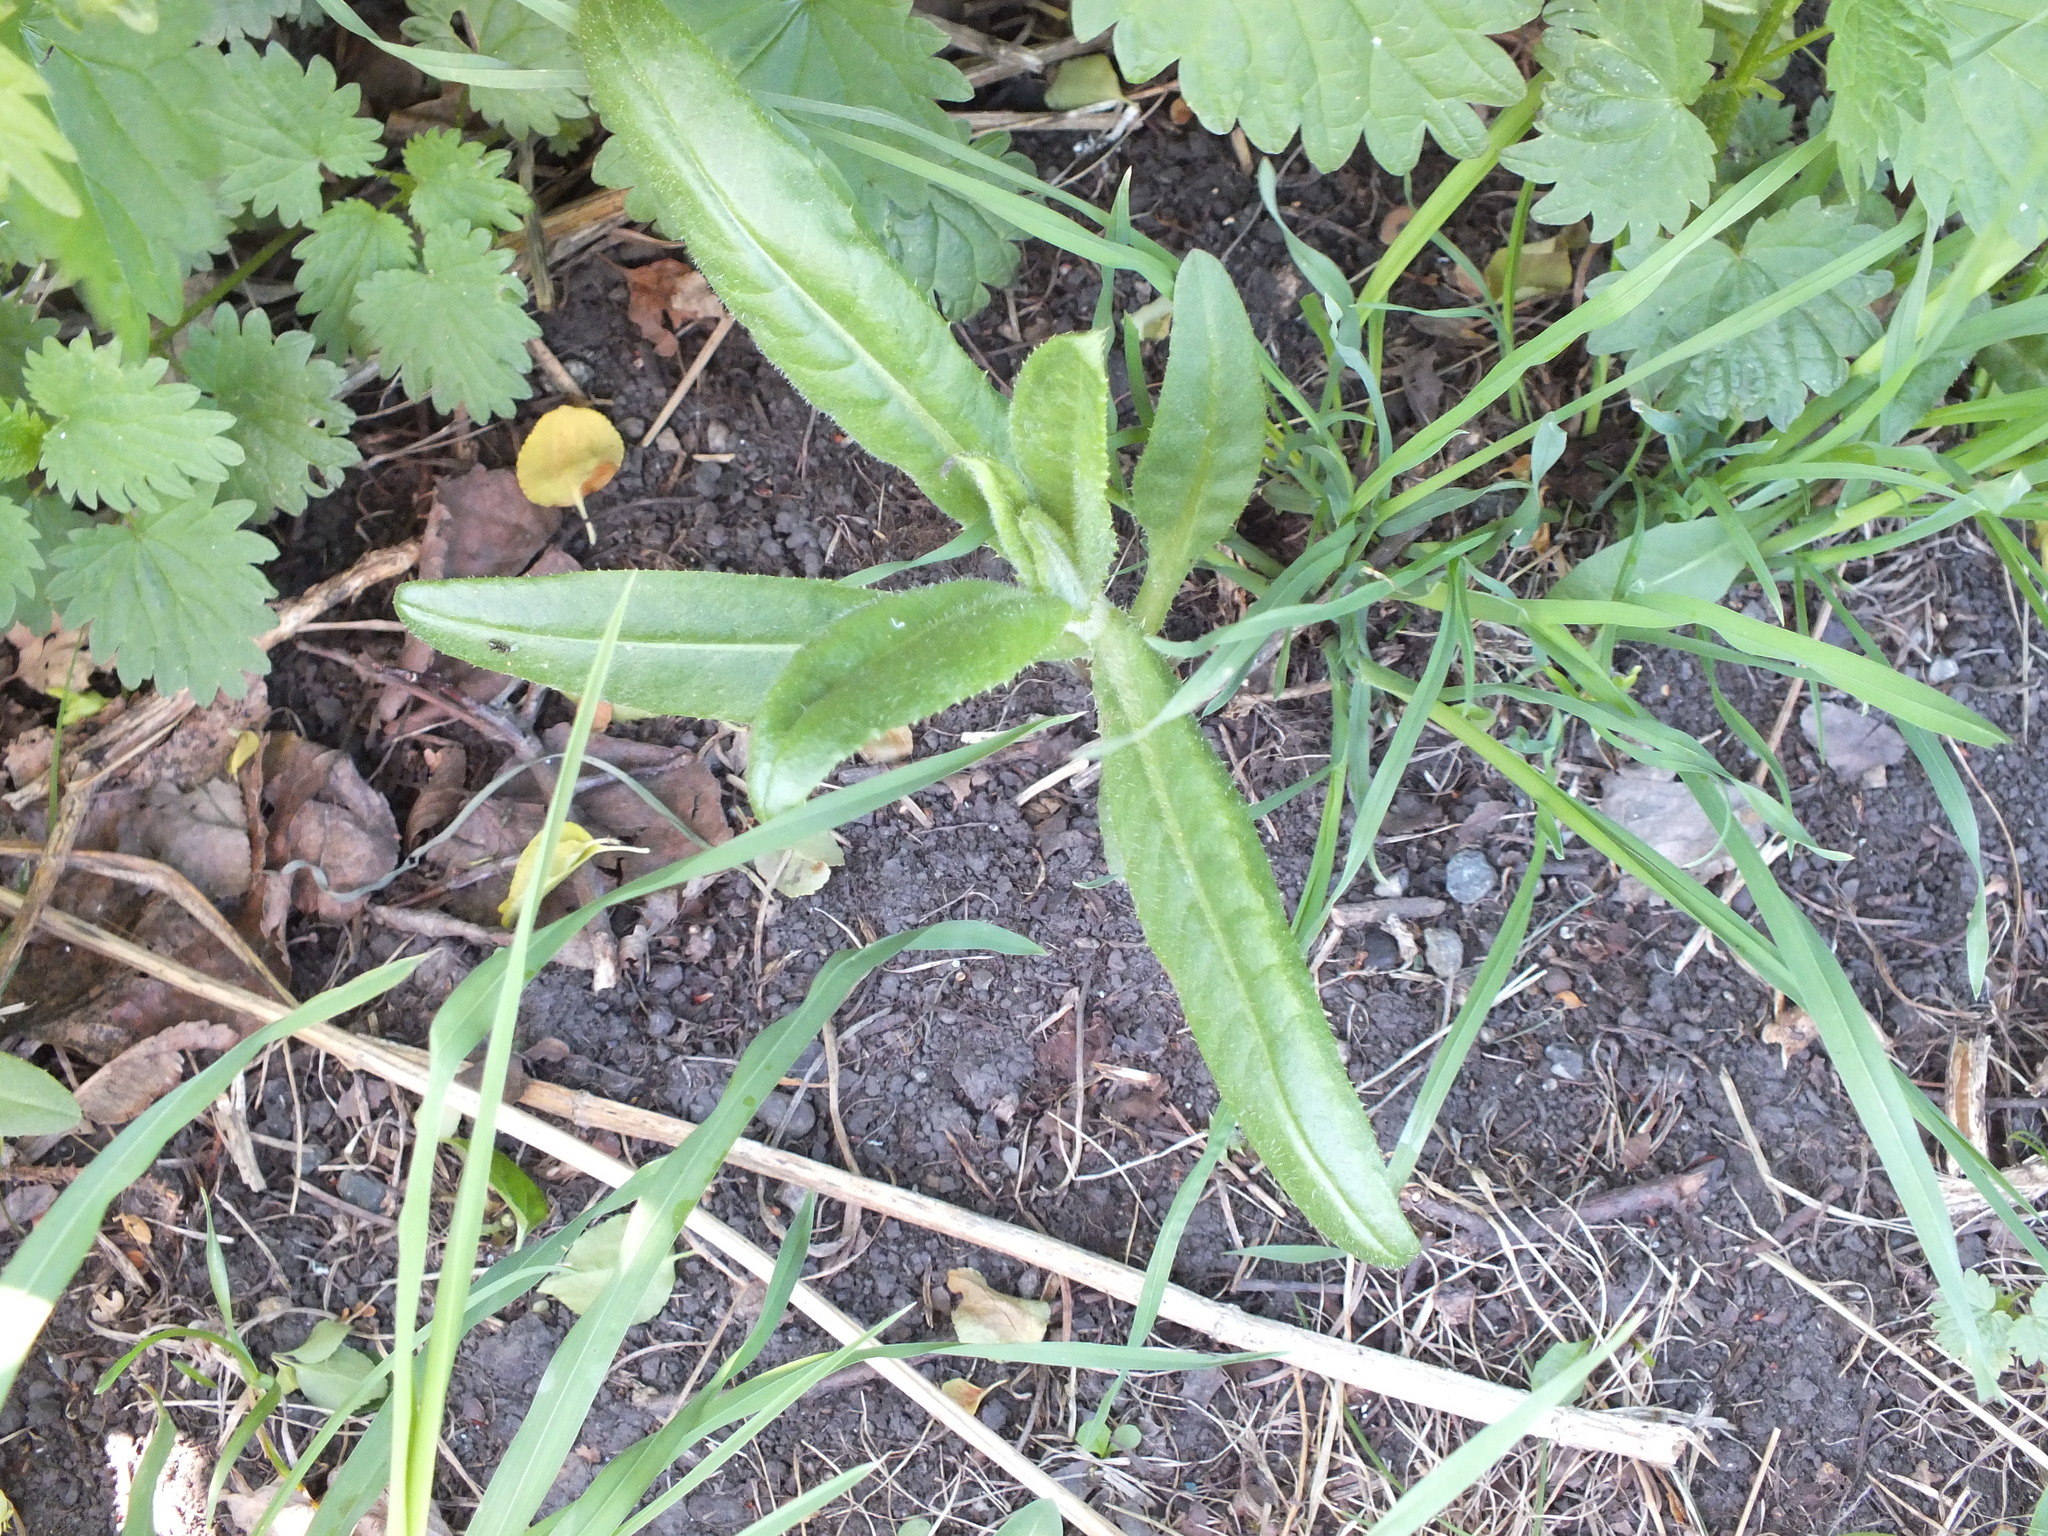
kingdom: Plantae
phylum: Tracheophyta
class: Magnoliopsida
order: Asterales
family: Asteraceae
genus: Cirsium
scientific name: Cirsium arvense
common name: Creeping thistle
